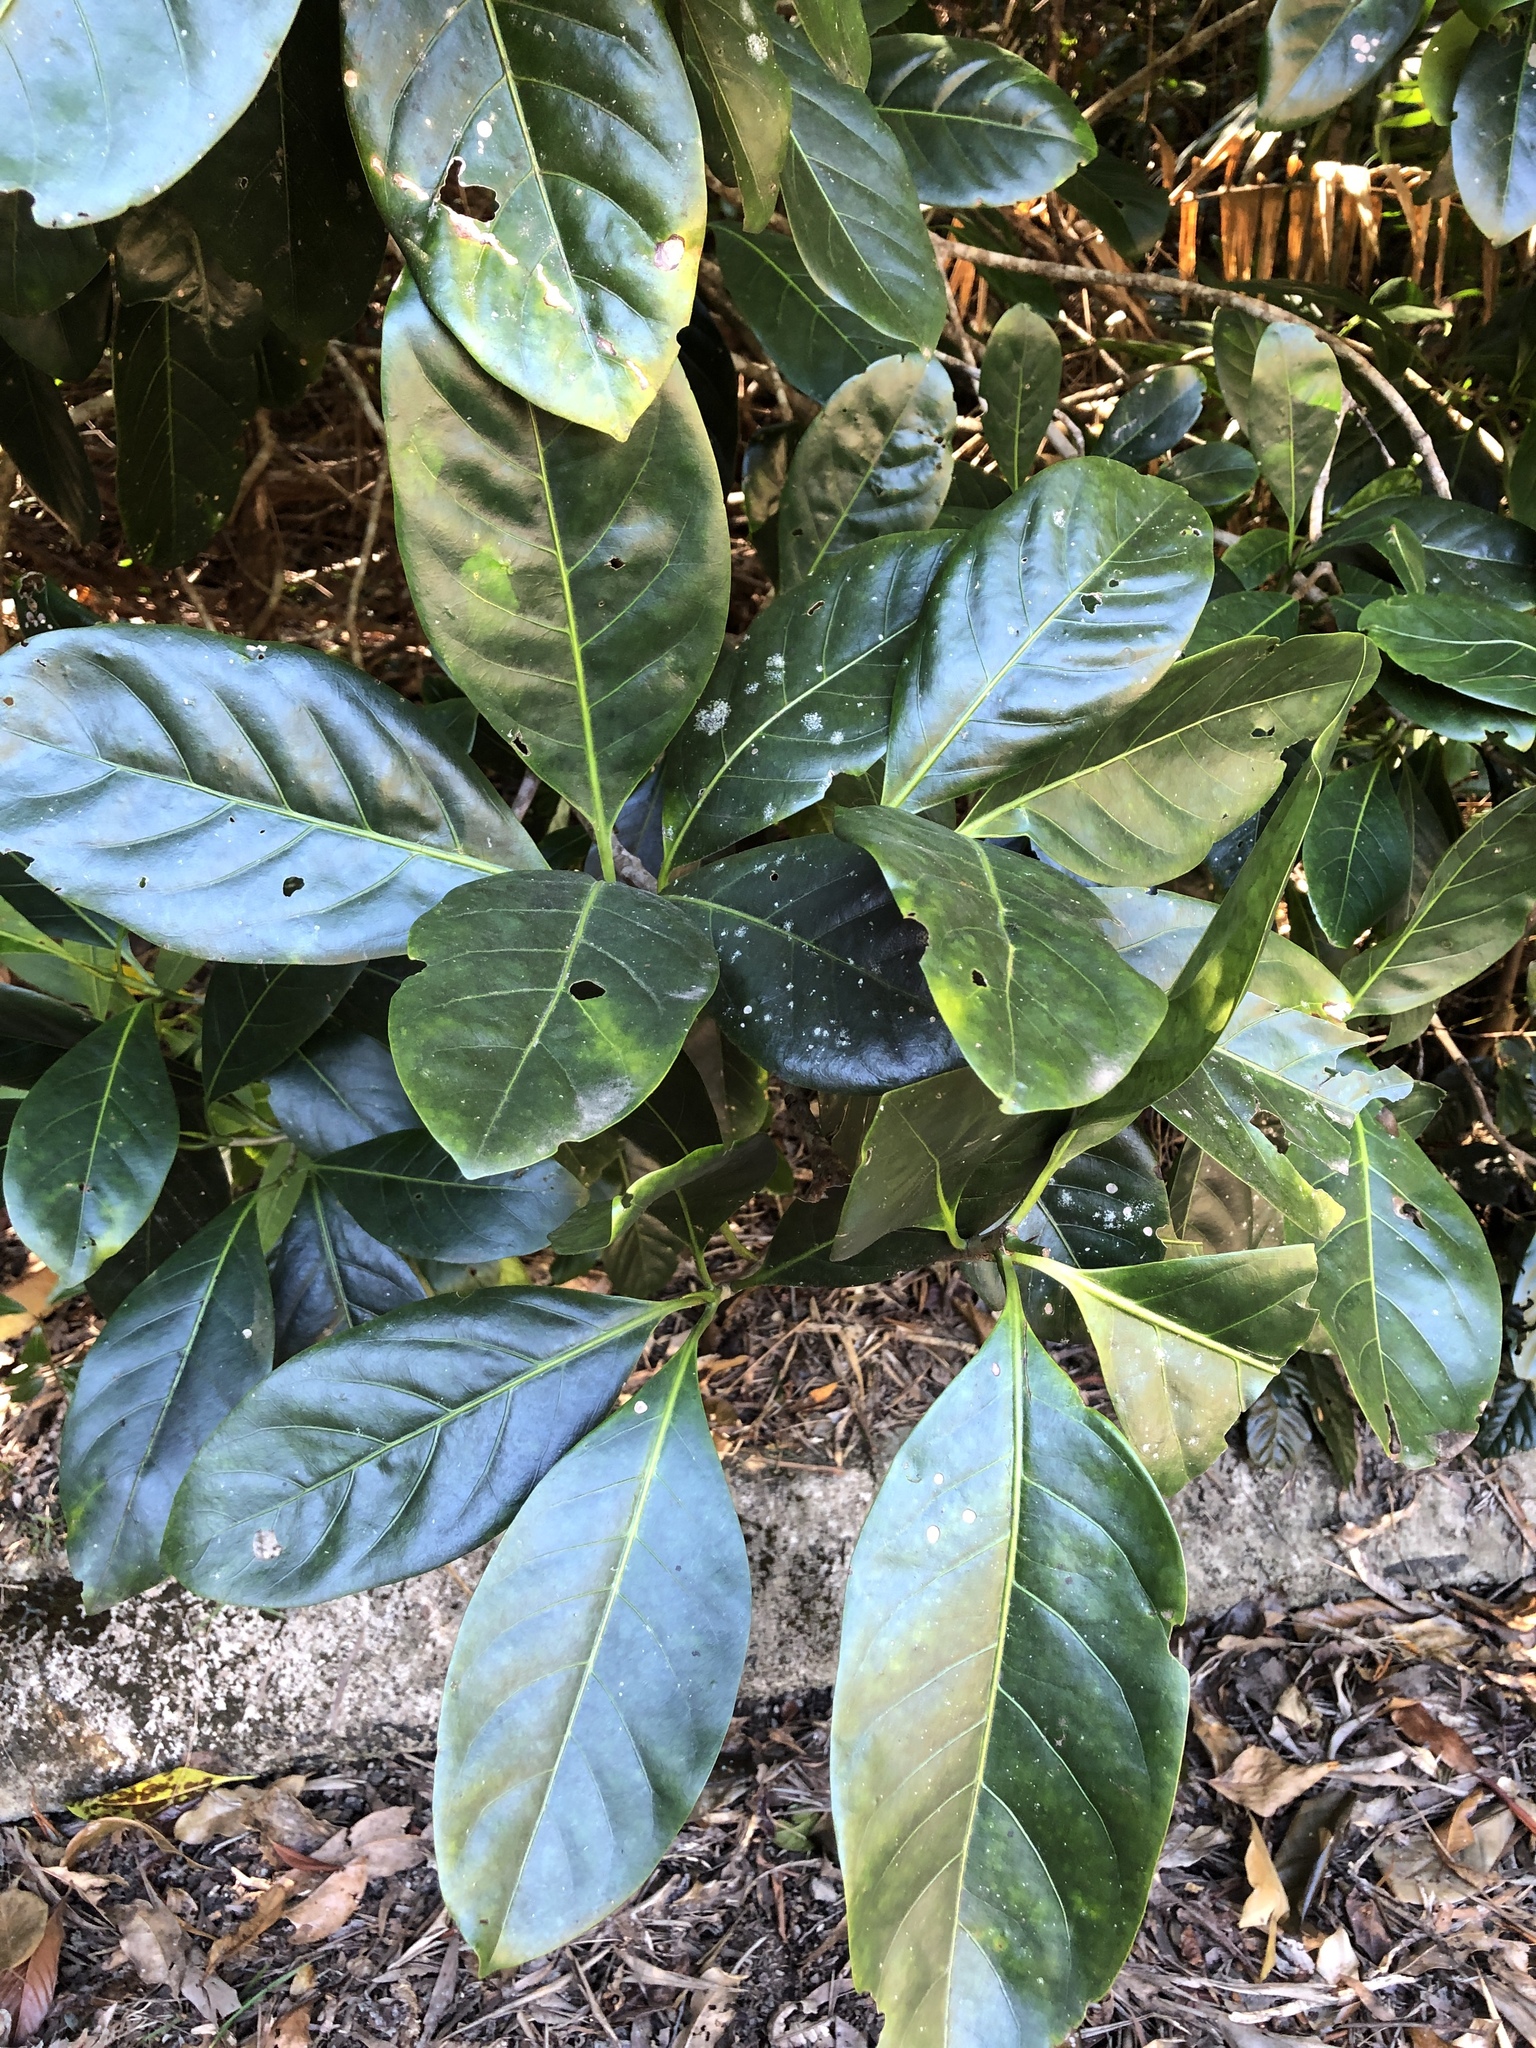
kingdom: Plantae
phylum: Tracheophyta
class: Magnoliopsida
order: Gentianales
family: Rubiaceae
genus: Atractocarpus
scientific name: Atractocarpus fitzalanii
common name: Randia
